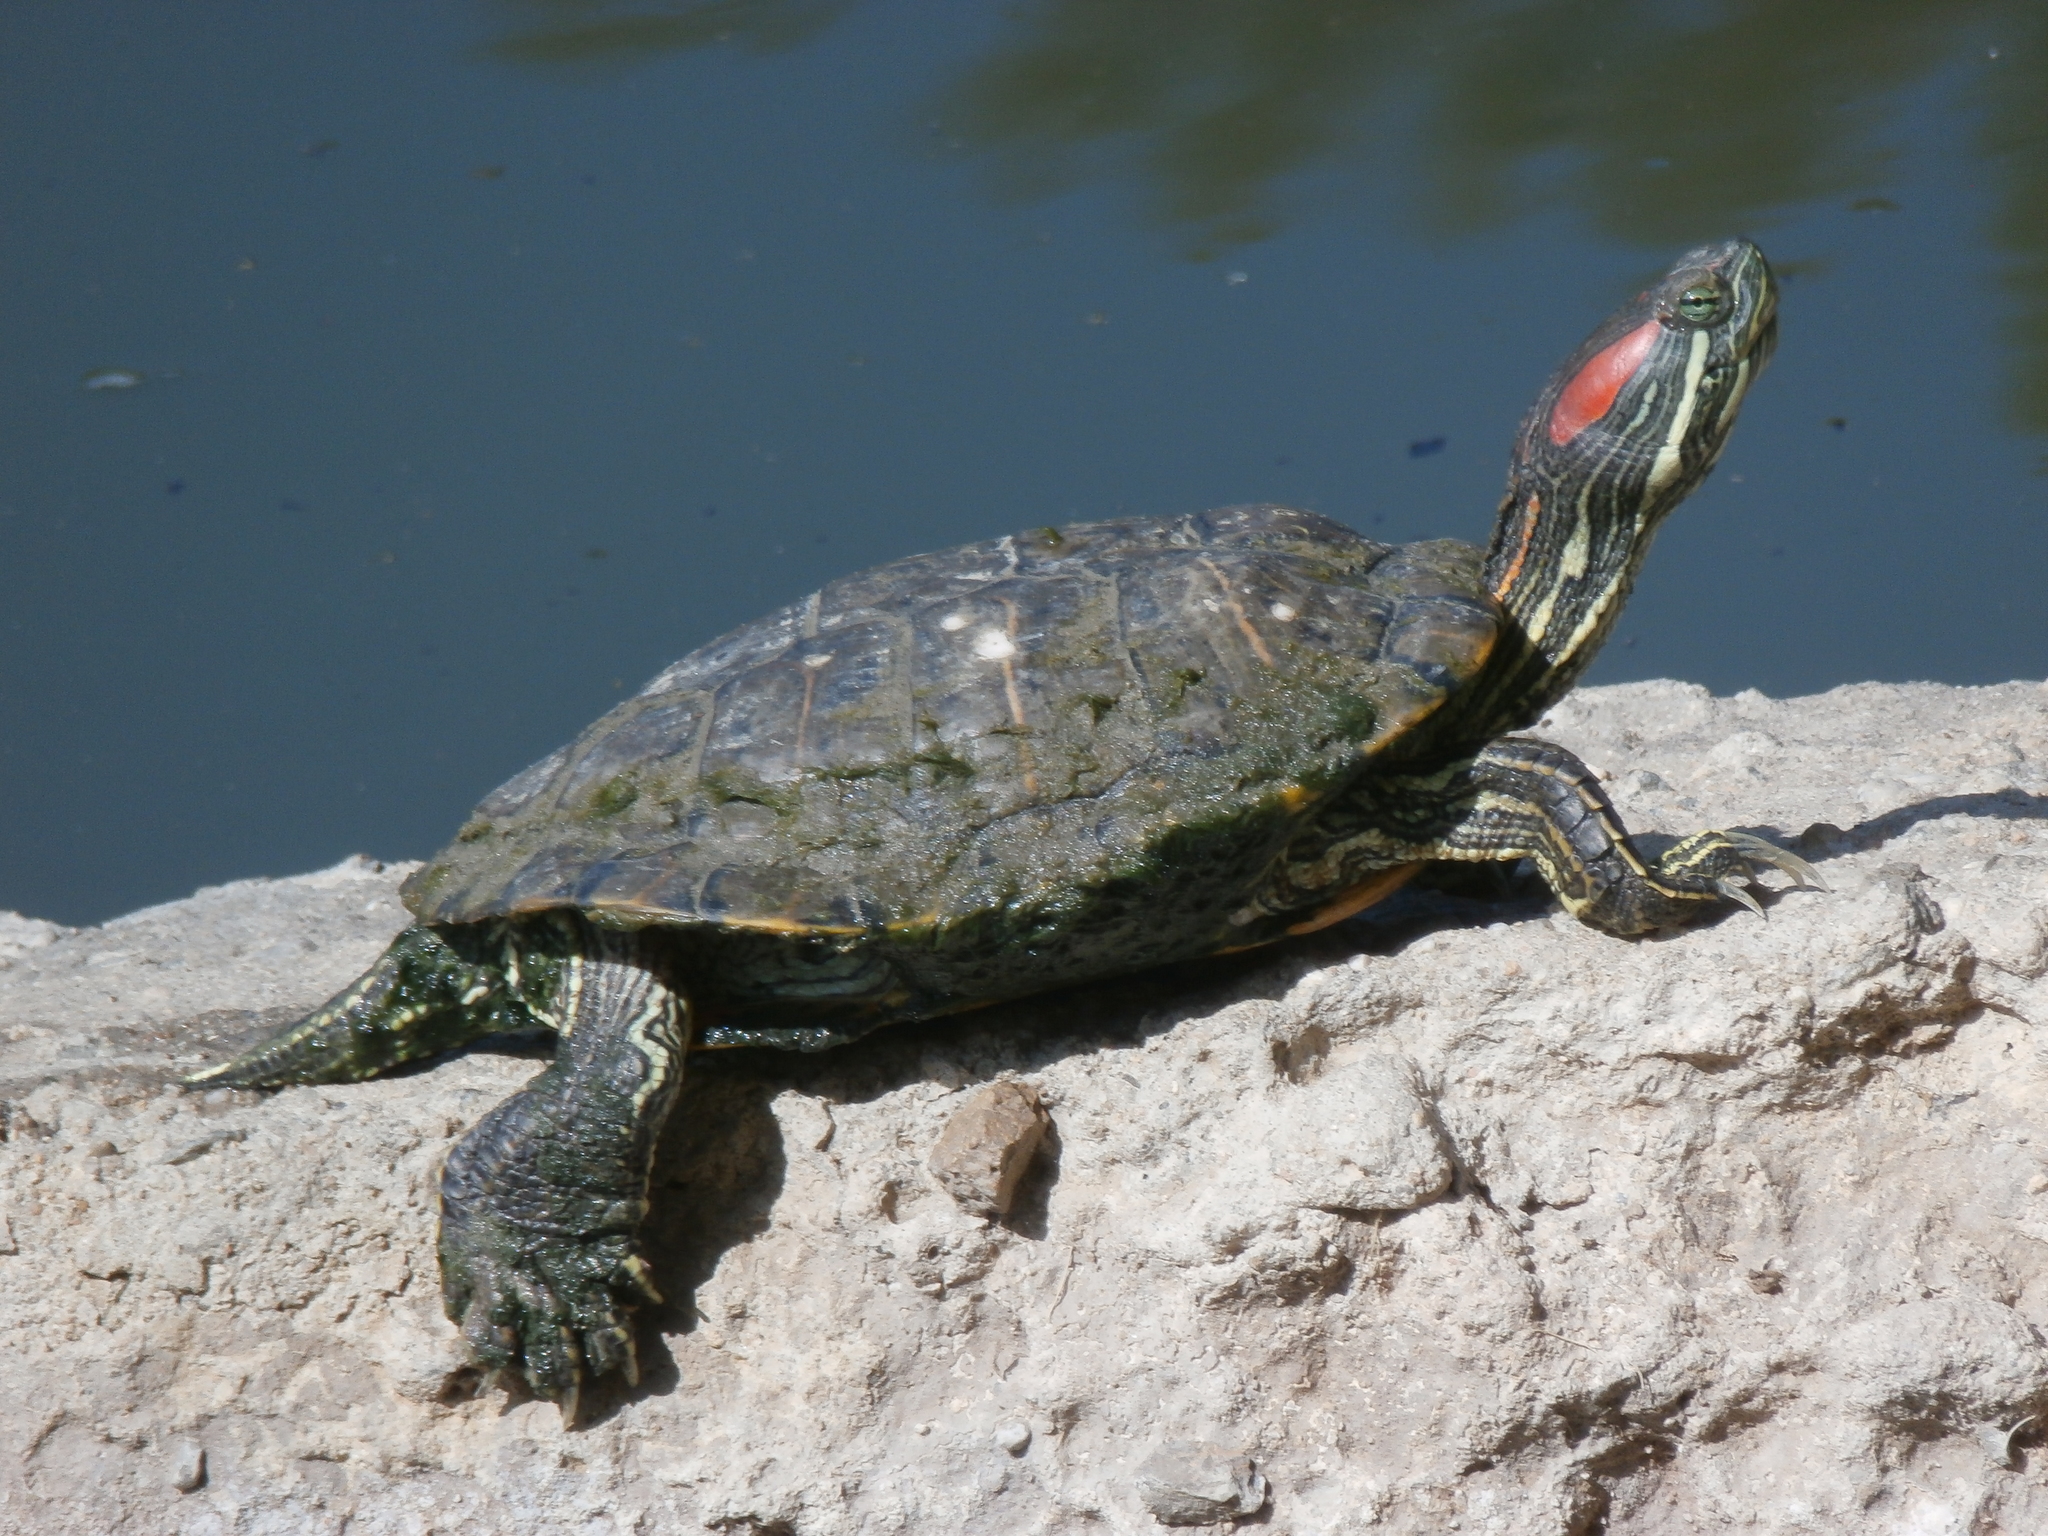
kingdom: Animalia
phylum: Chordata
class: Testudines
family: Emydidae
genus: Trachemys
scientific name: Trachemys scripta
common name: Slider
